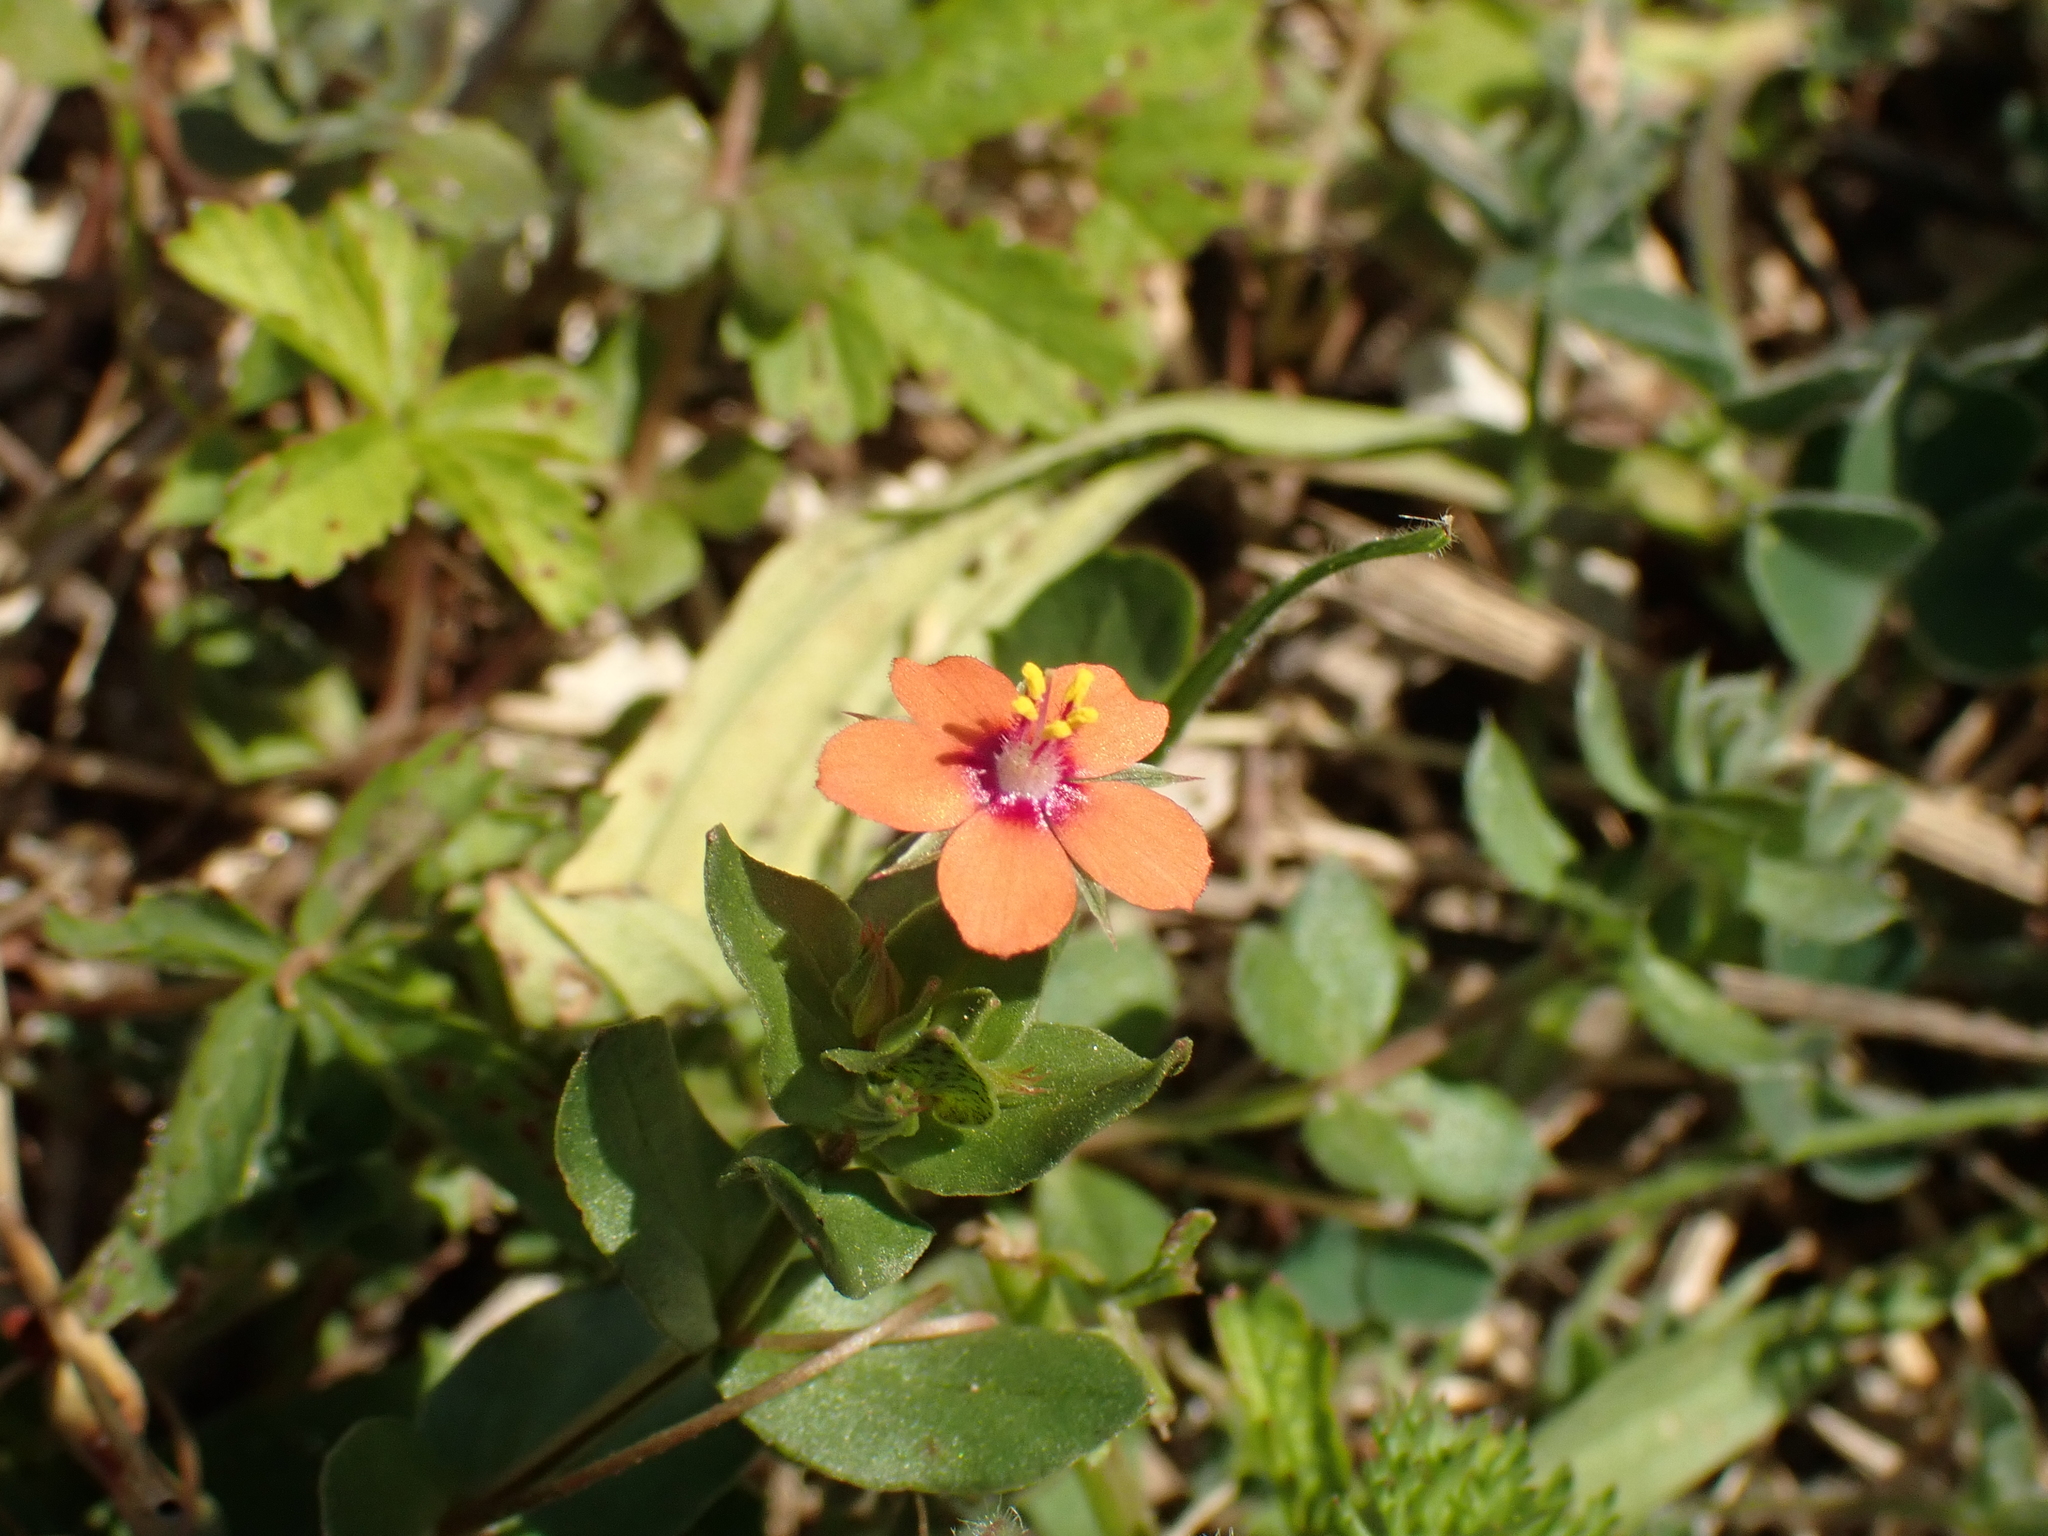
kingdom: Plantae
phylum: Tracheophyta
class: Magnoliopsida
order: Ericales
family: Primulaceae
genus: Lysimachia
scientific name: Lysimachia arvensis
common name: Scarlet pimpernel
